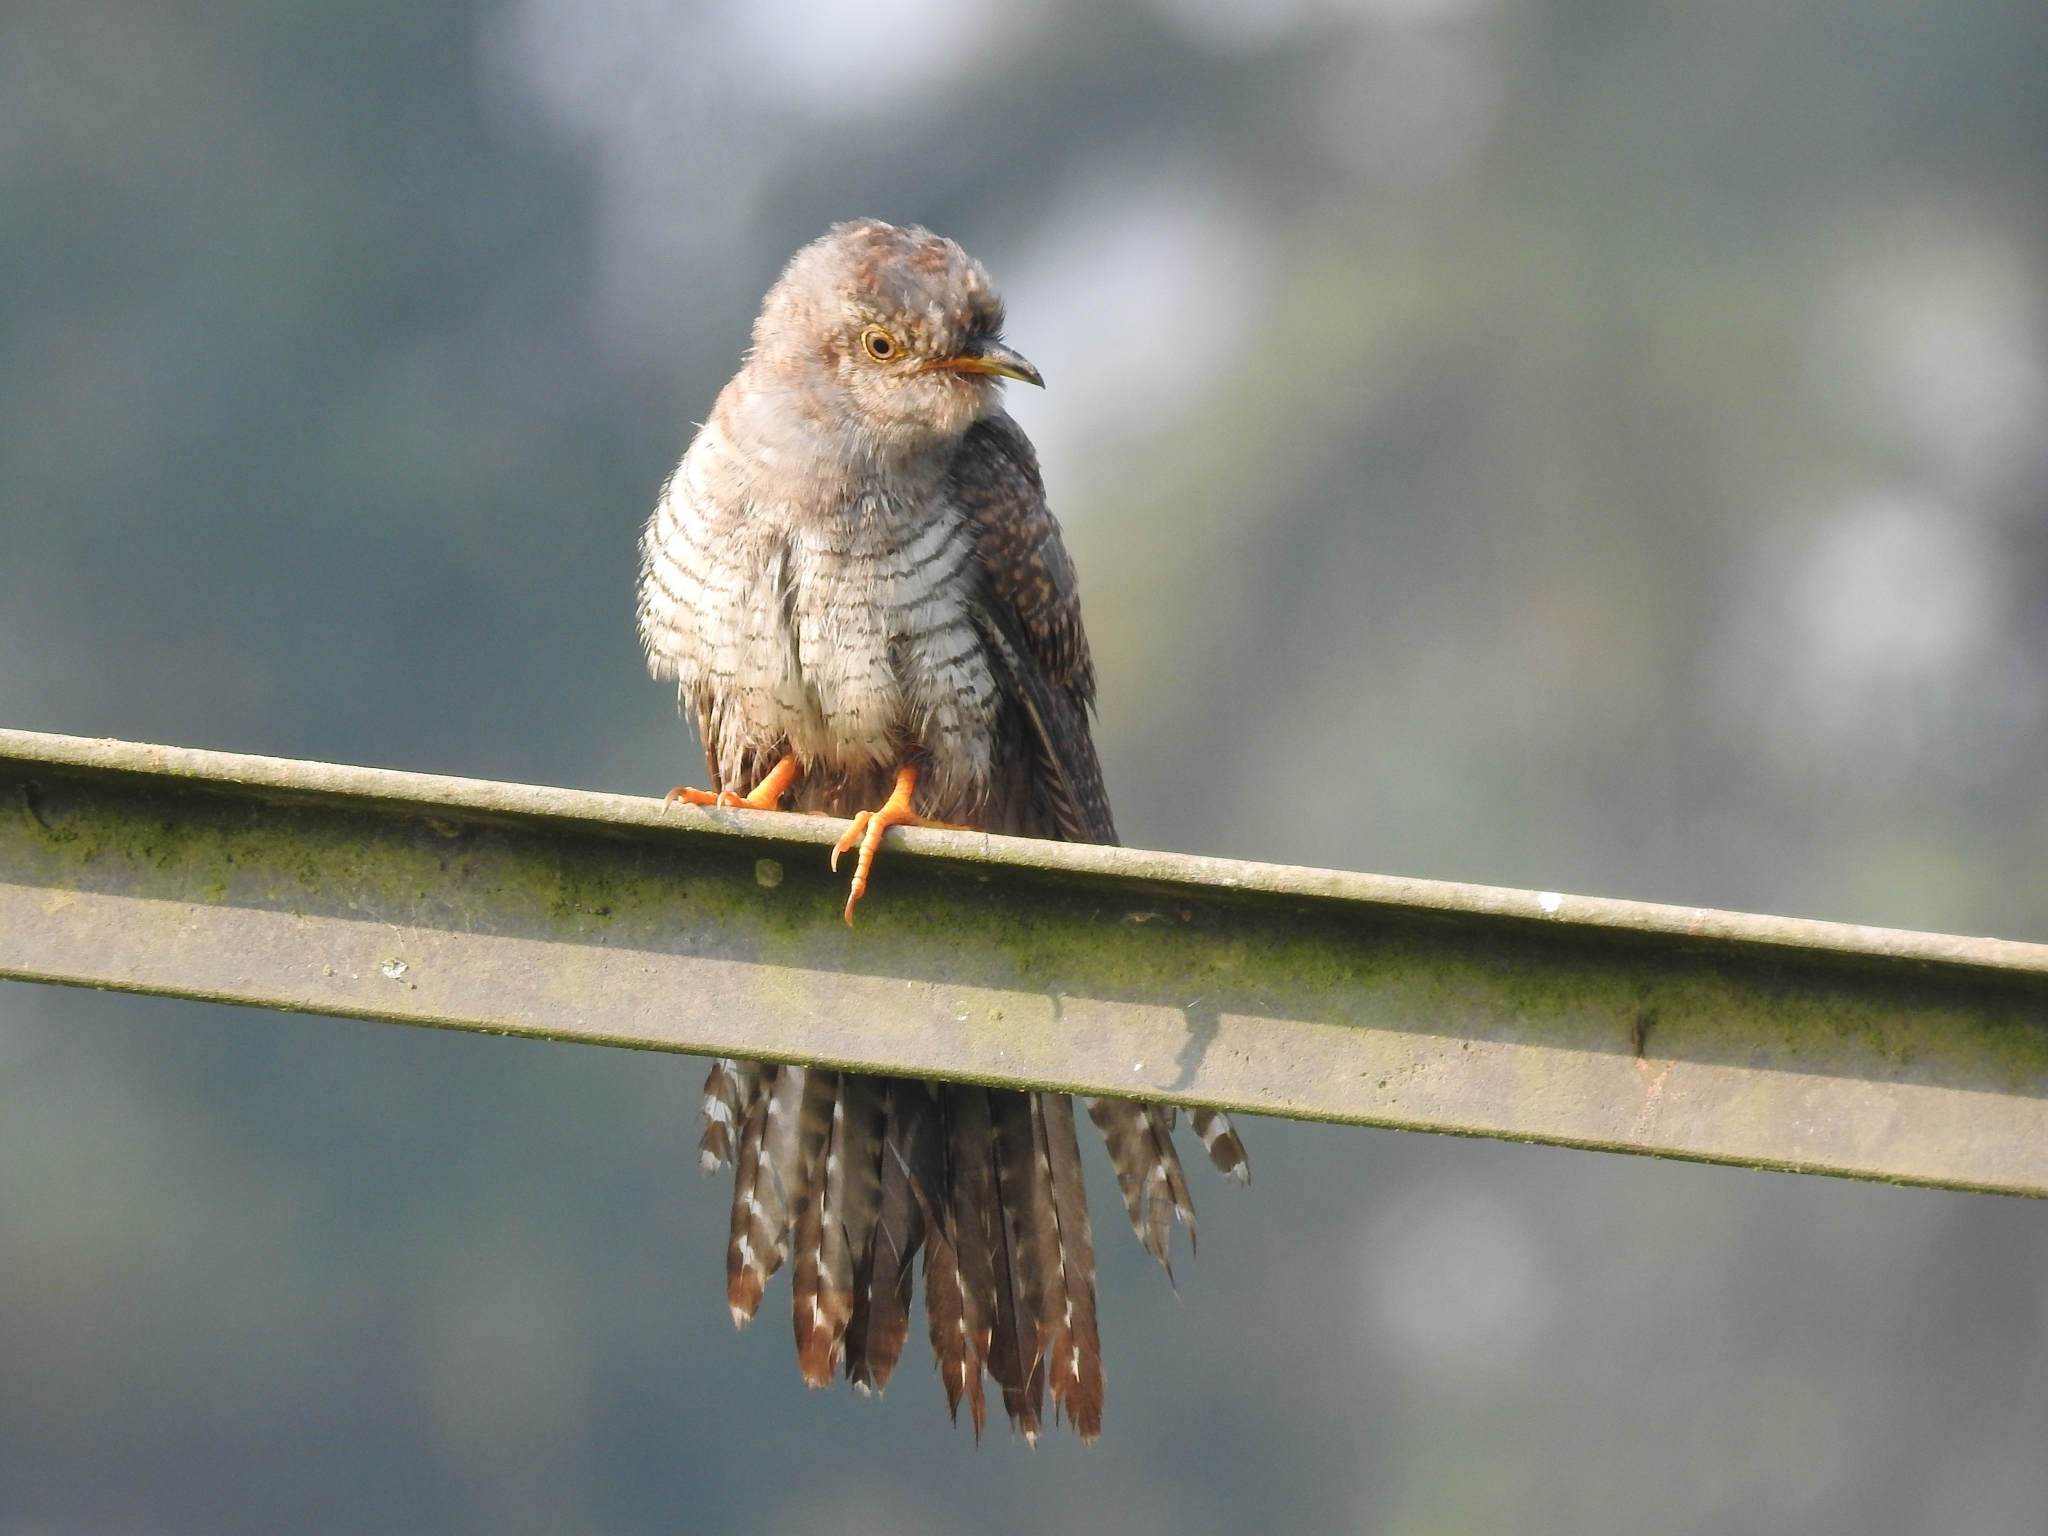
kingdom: Animalia
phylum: Chordata
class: Aves
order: Cuculiformes
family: Cuculidae
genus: Cuculus
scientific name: Cuculus canorus
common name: Common cuckoo
